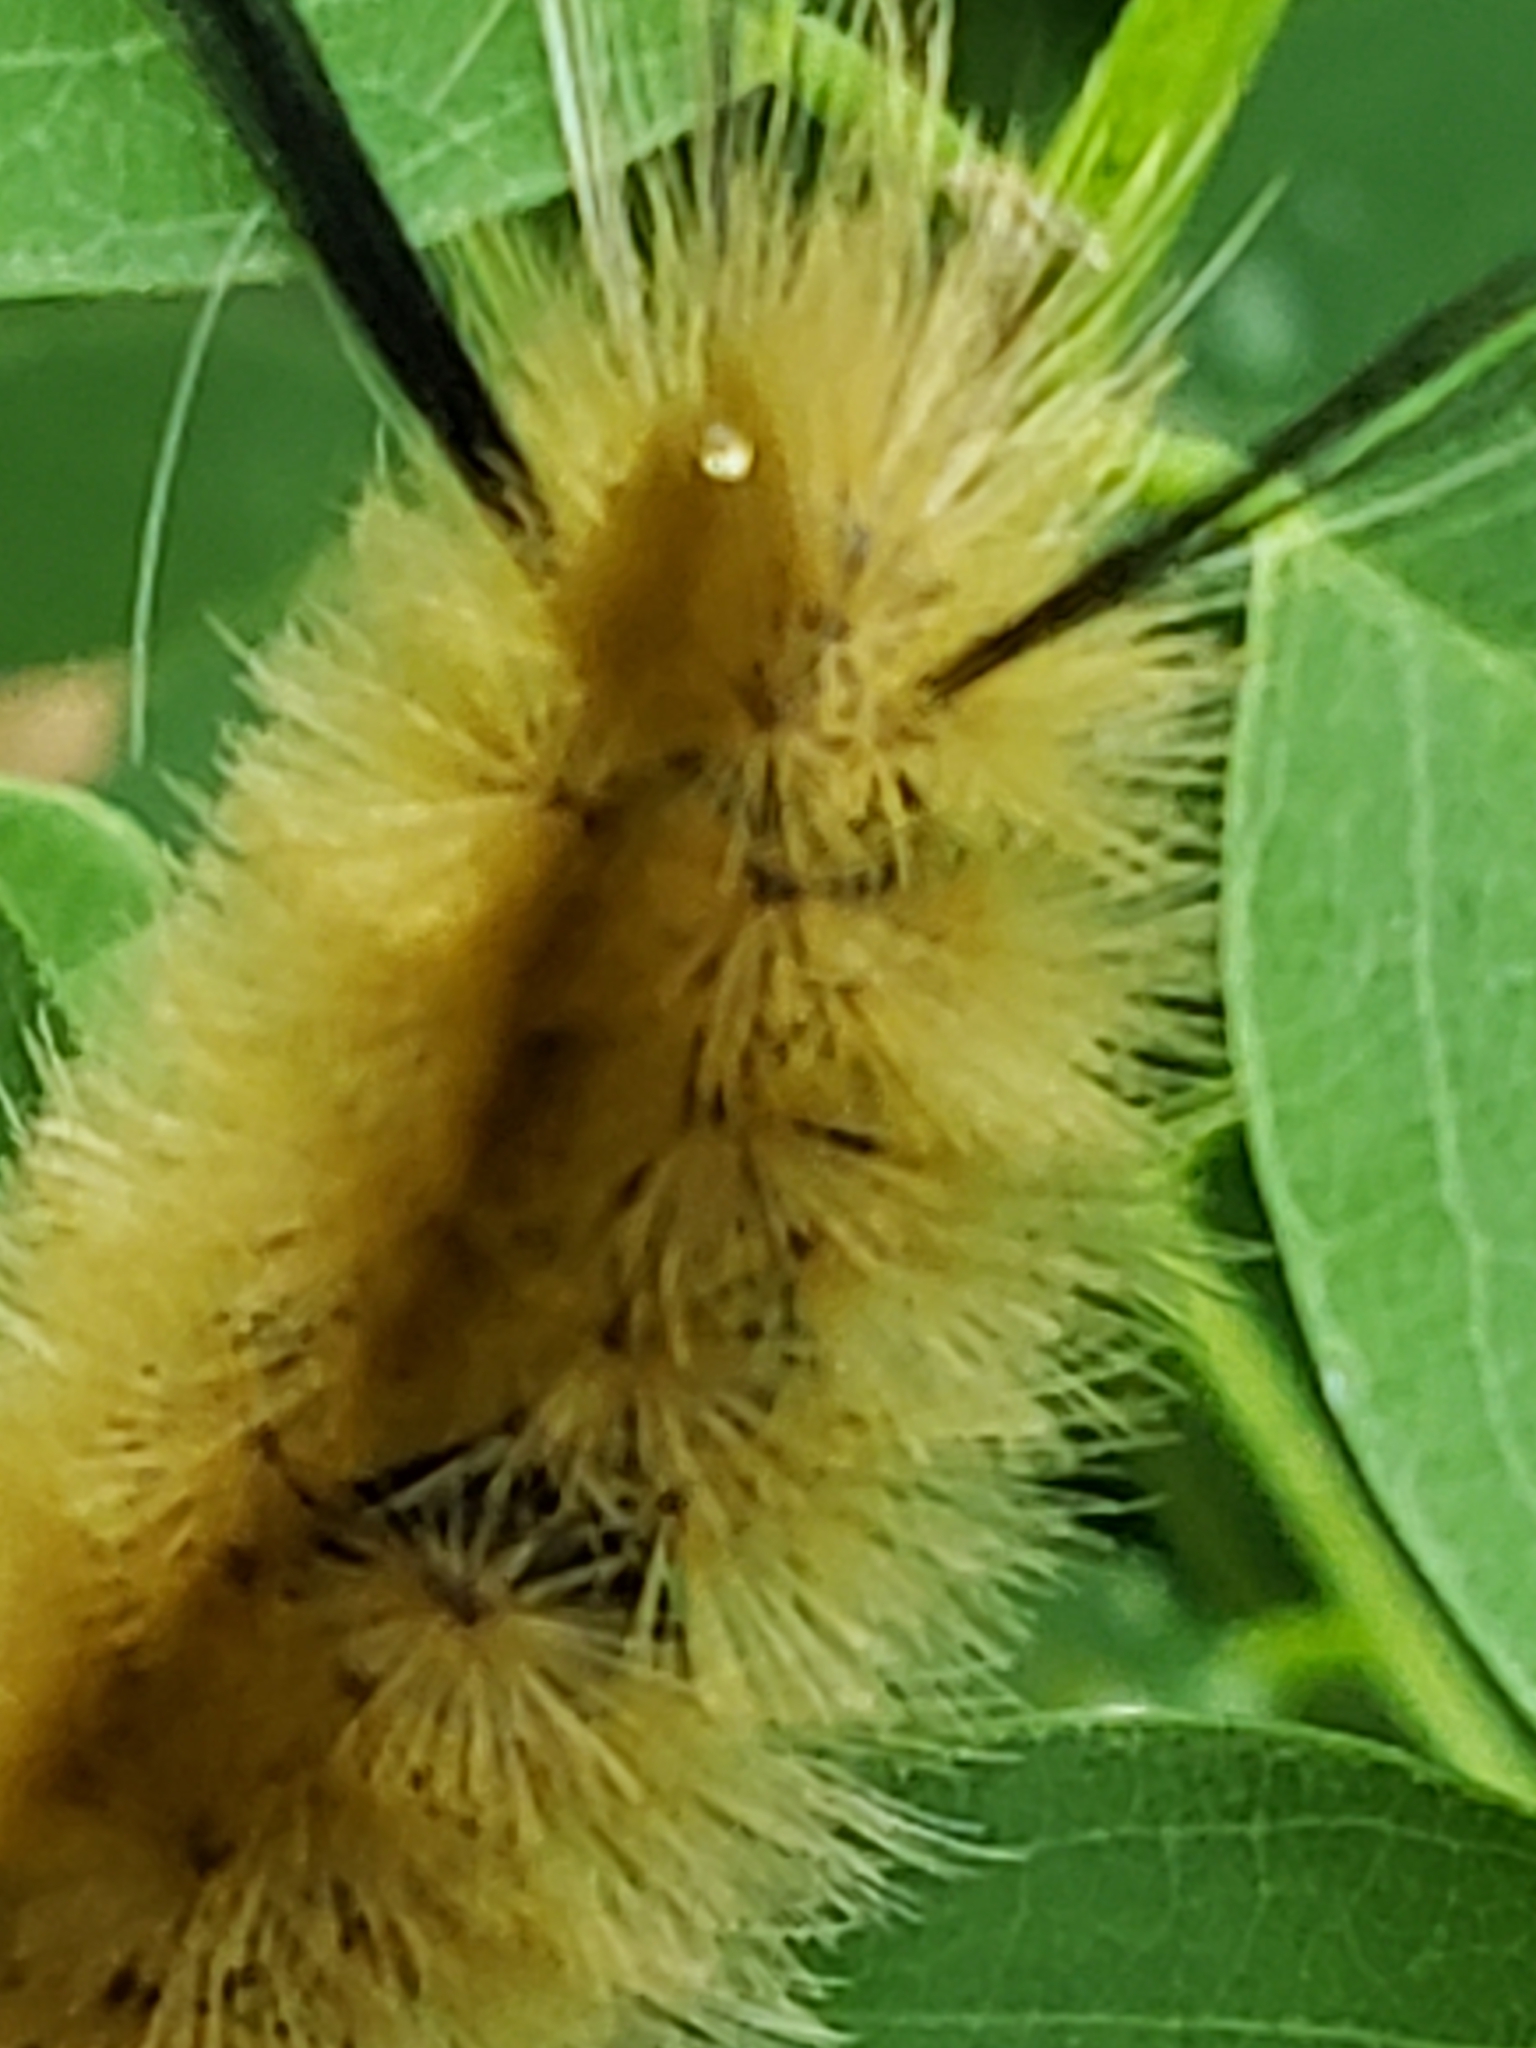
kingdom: Animalia
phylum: Arthropoda
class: Insecta
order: Lepidoptera
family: Erebidae
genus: Halysidota
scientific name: Halysidota tessellaris
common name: Banded tussock moth
